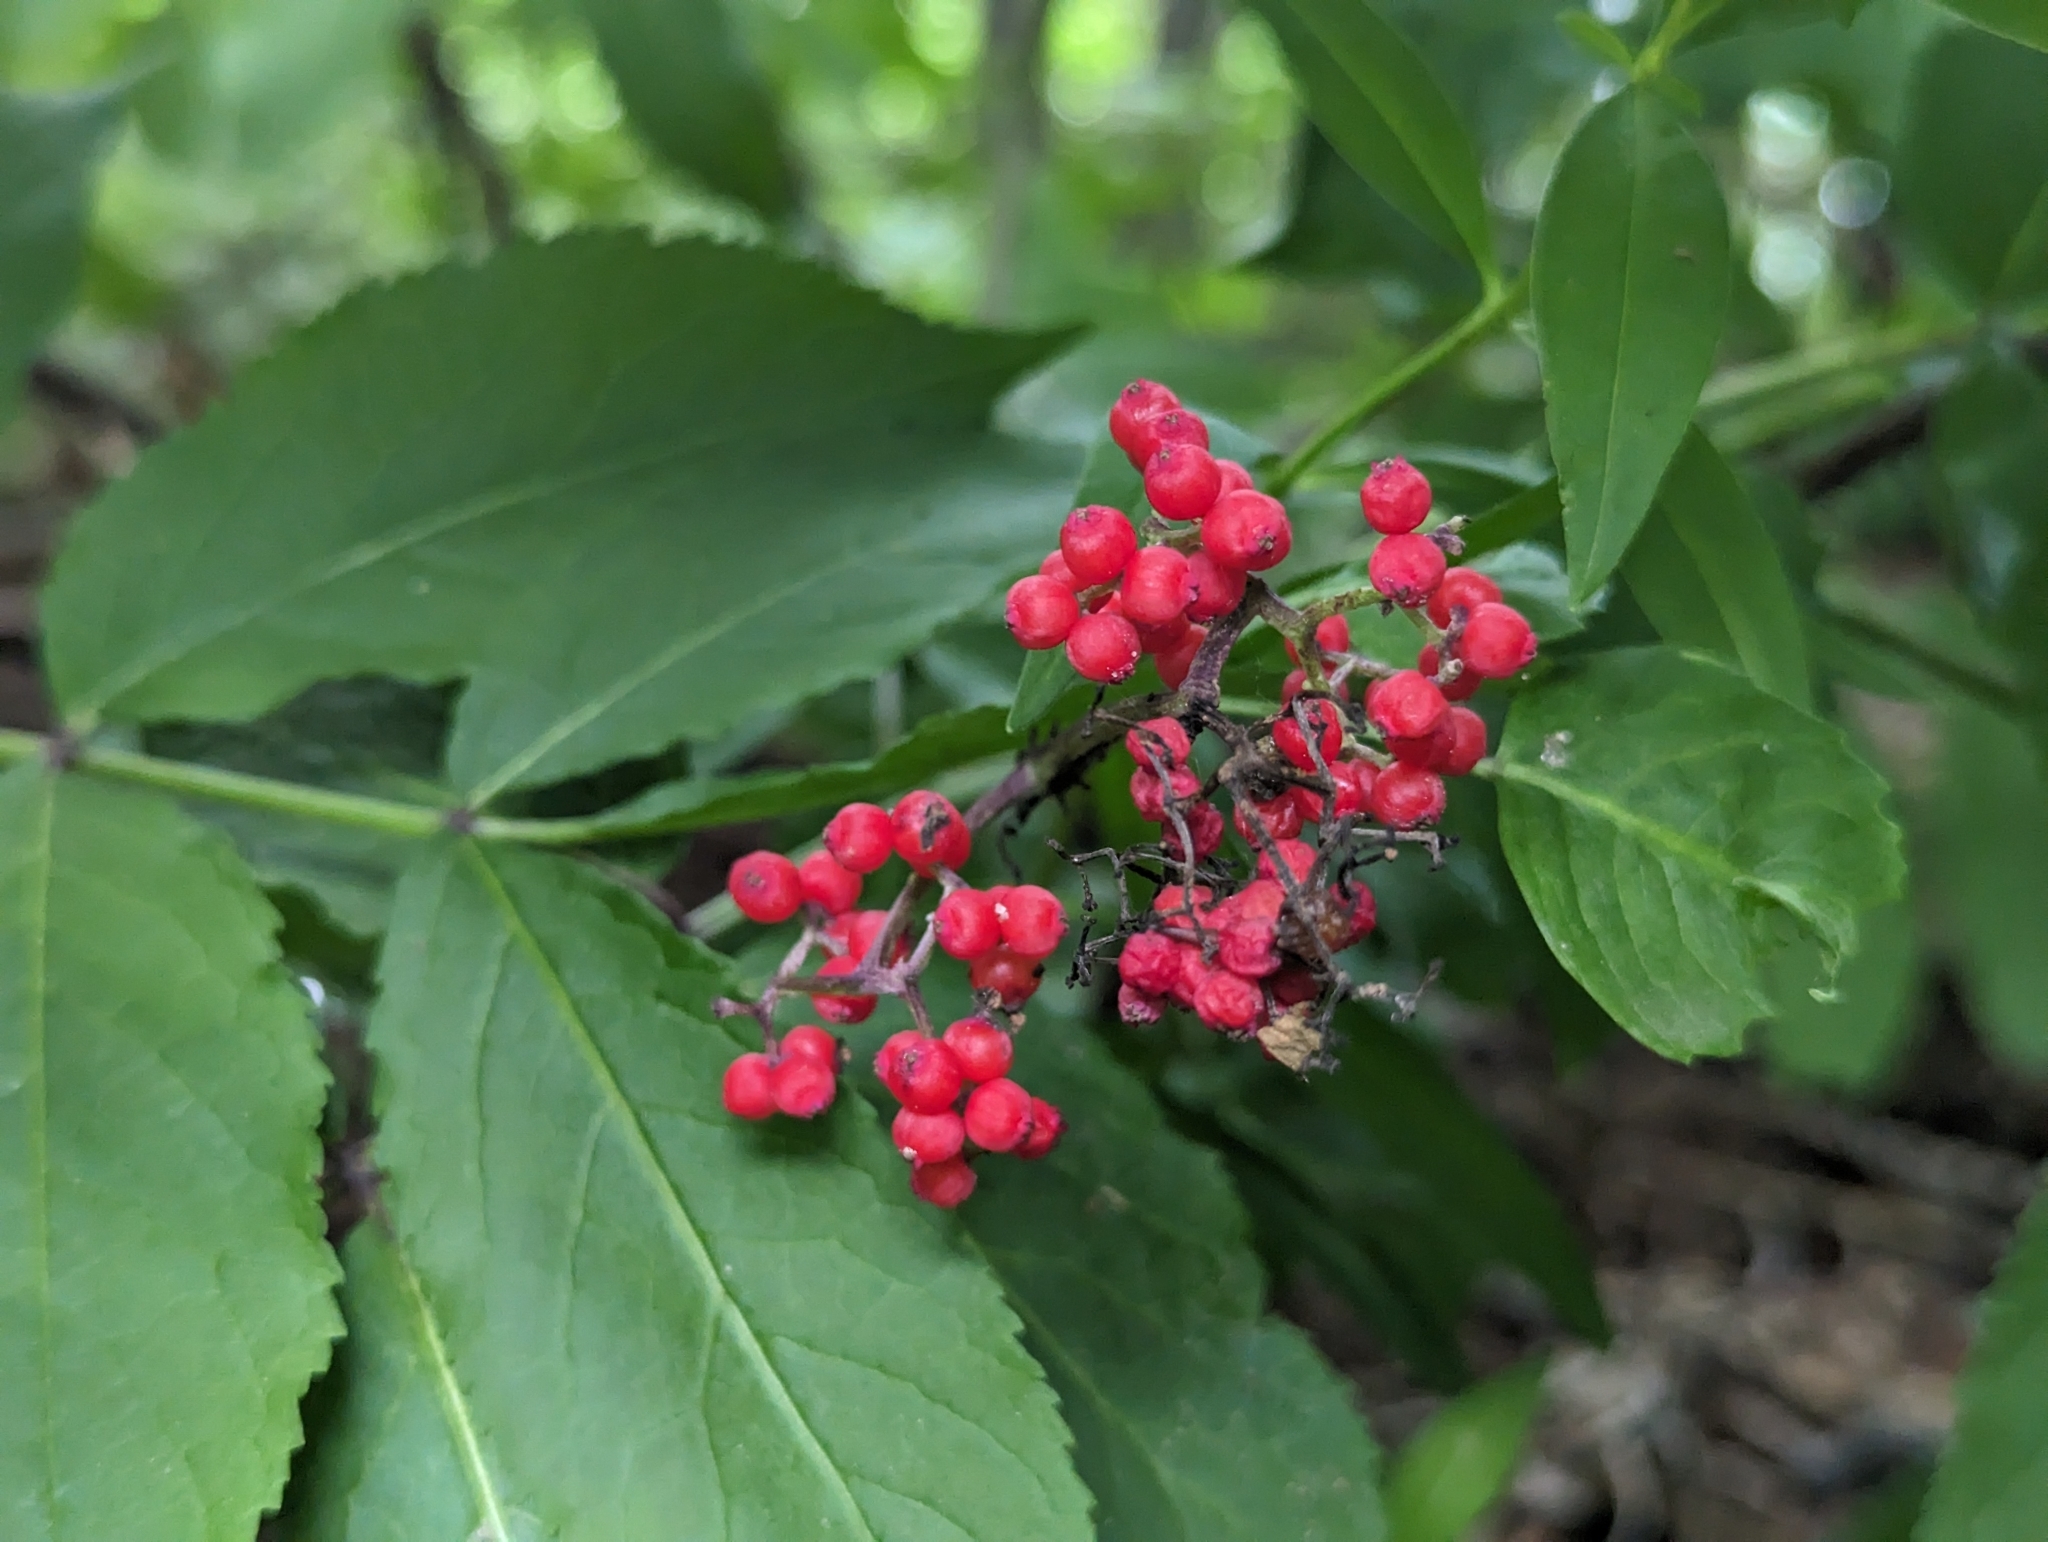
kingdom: Plantae
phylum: Tracheophyta
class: Magnoliopsida
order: Dipsacales
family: Viburnaceae
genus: Sambucus
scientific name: Sambucus racemosa
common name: Red-berried elder
